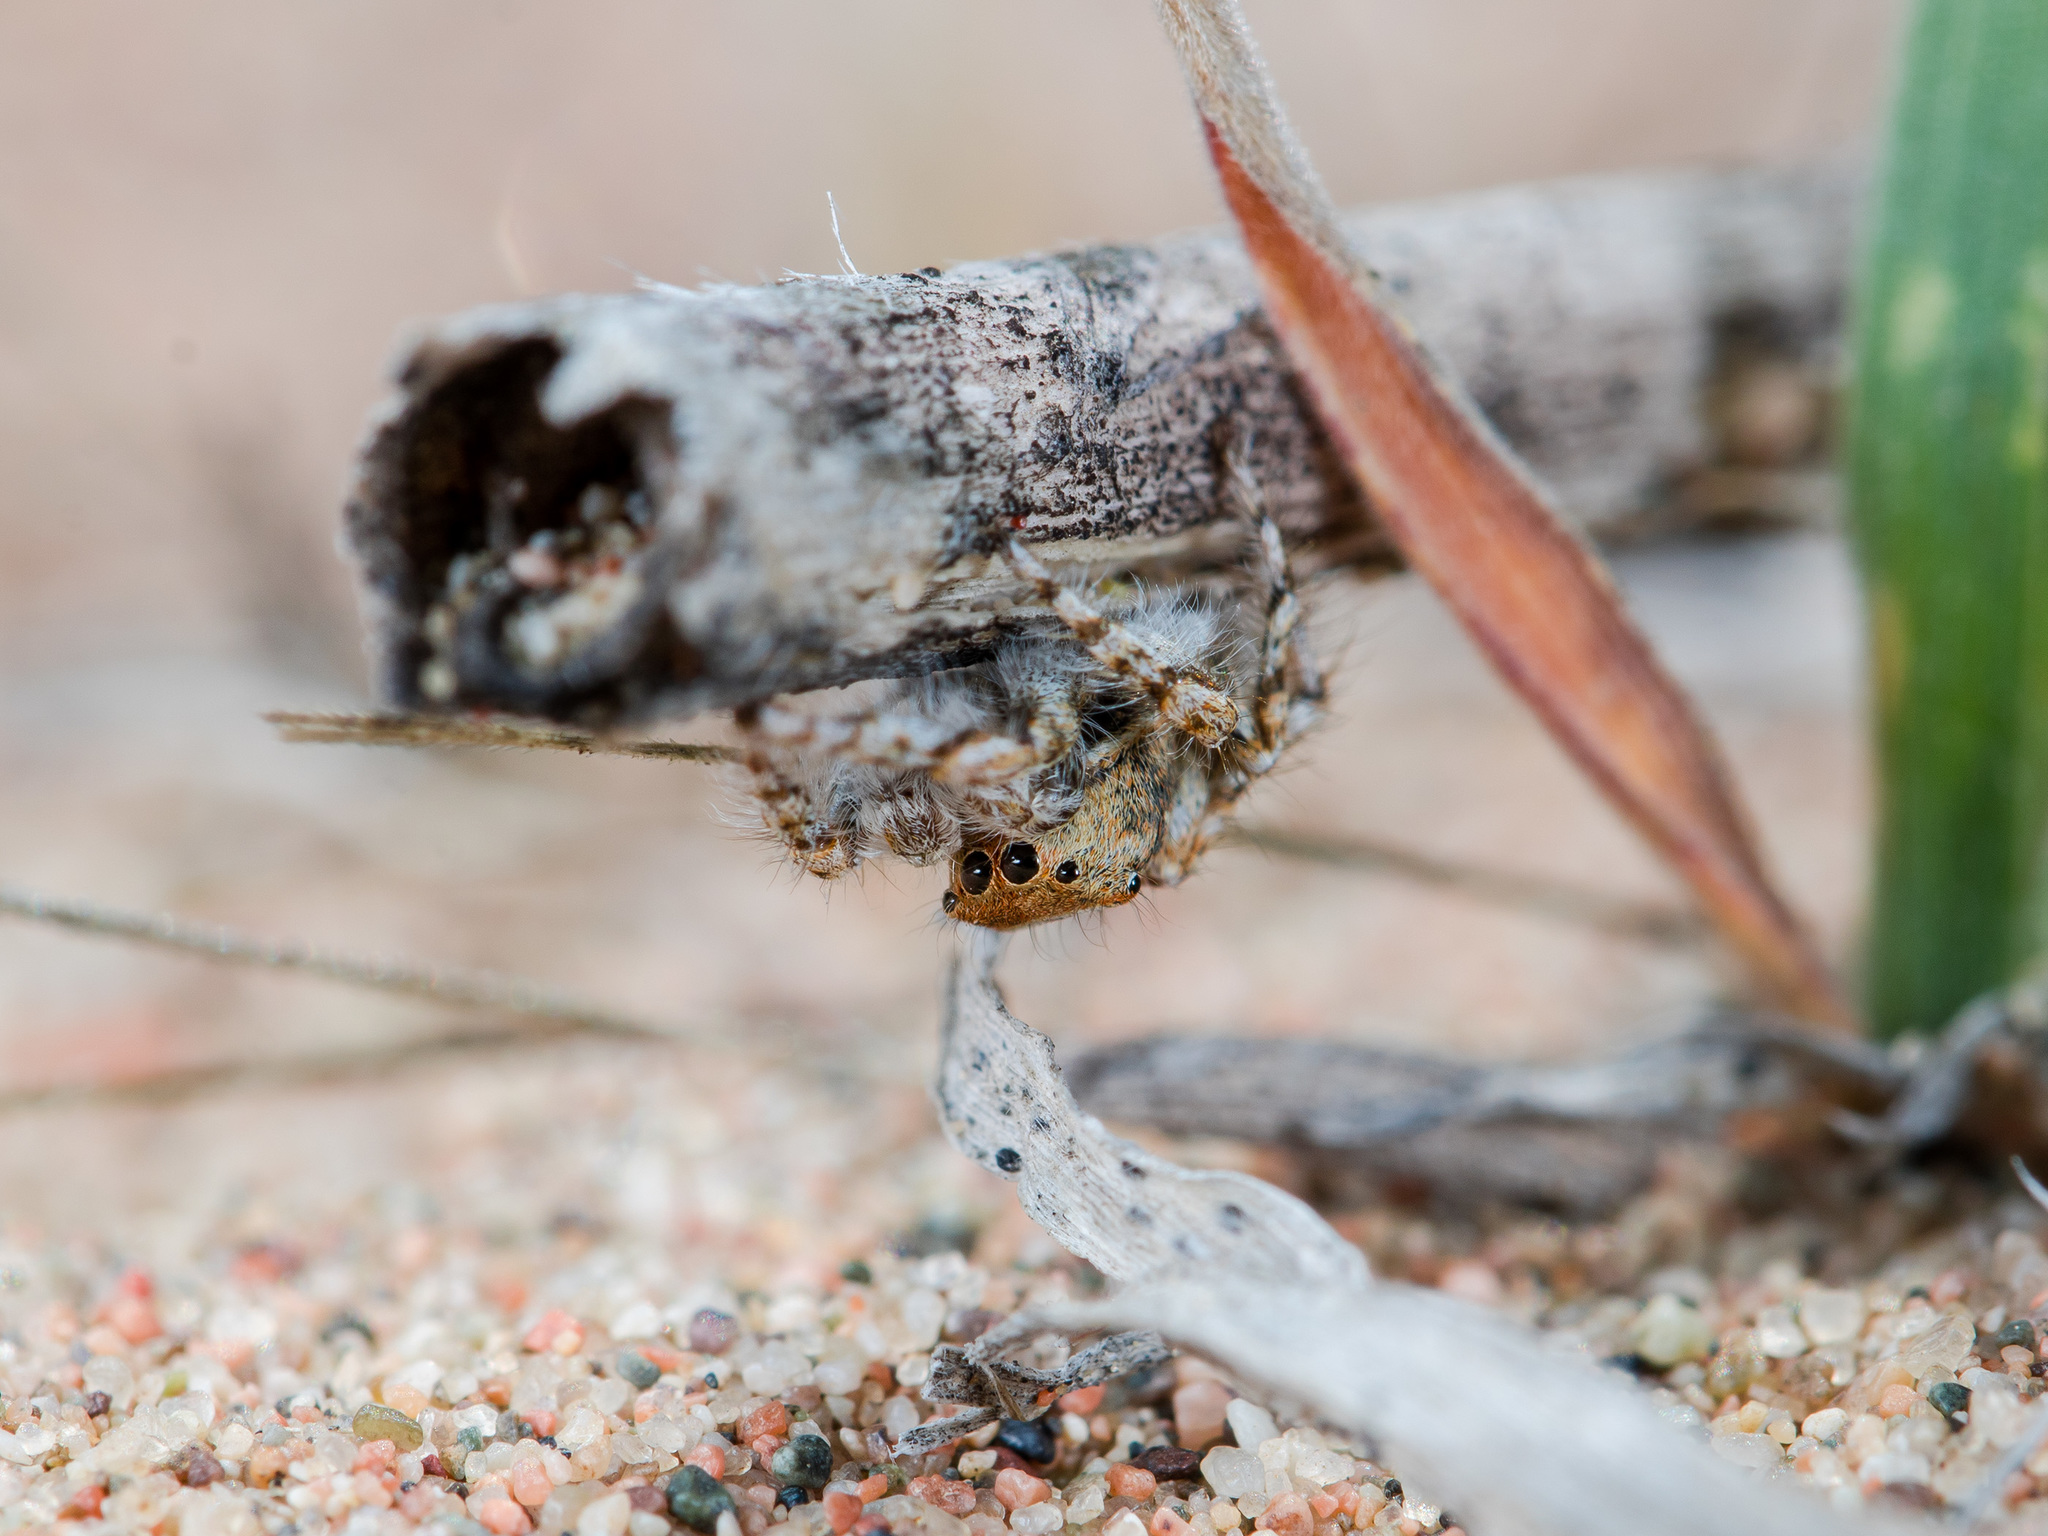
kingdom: Animalia
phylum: Arthropoda
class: Arachnida
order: Araneae
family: Salticidae
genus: Yllenus
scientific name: Yllenus uiguricus
